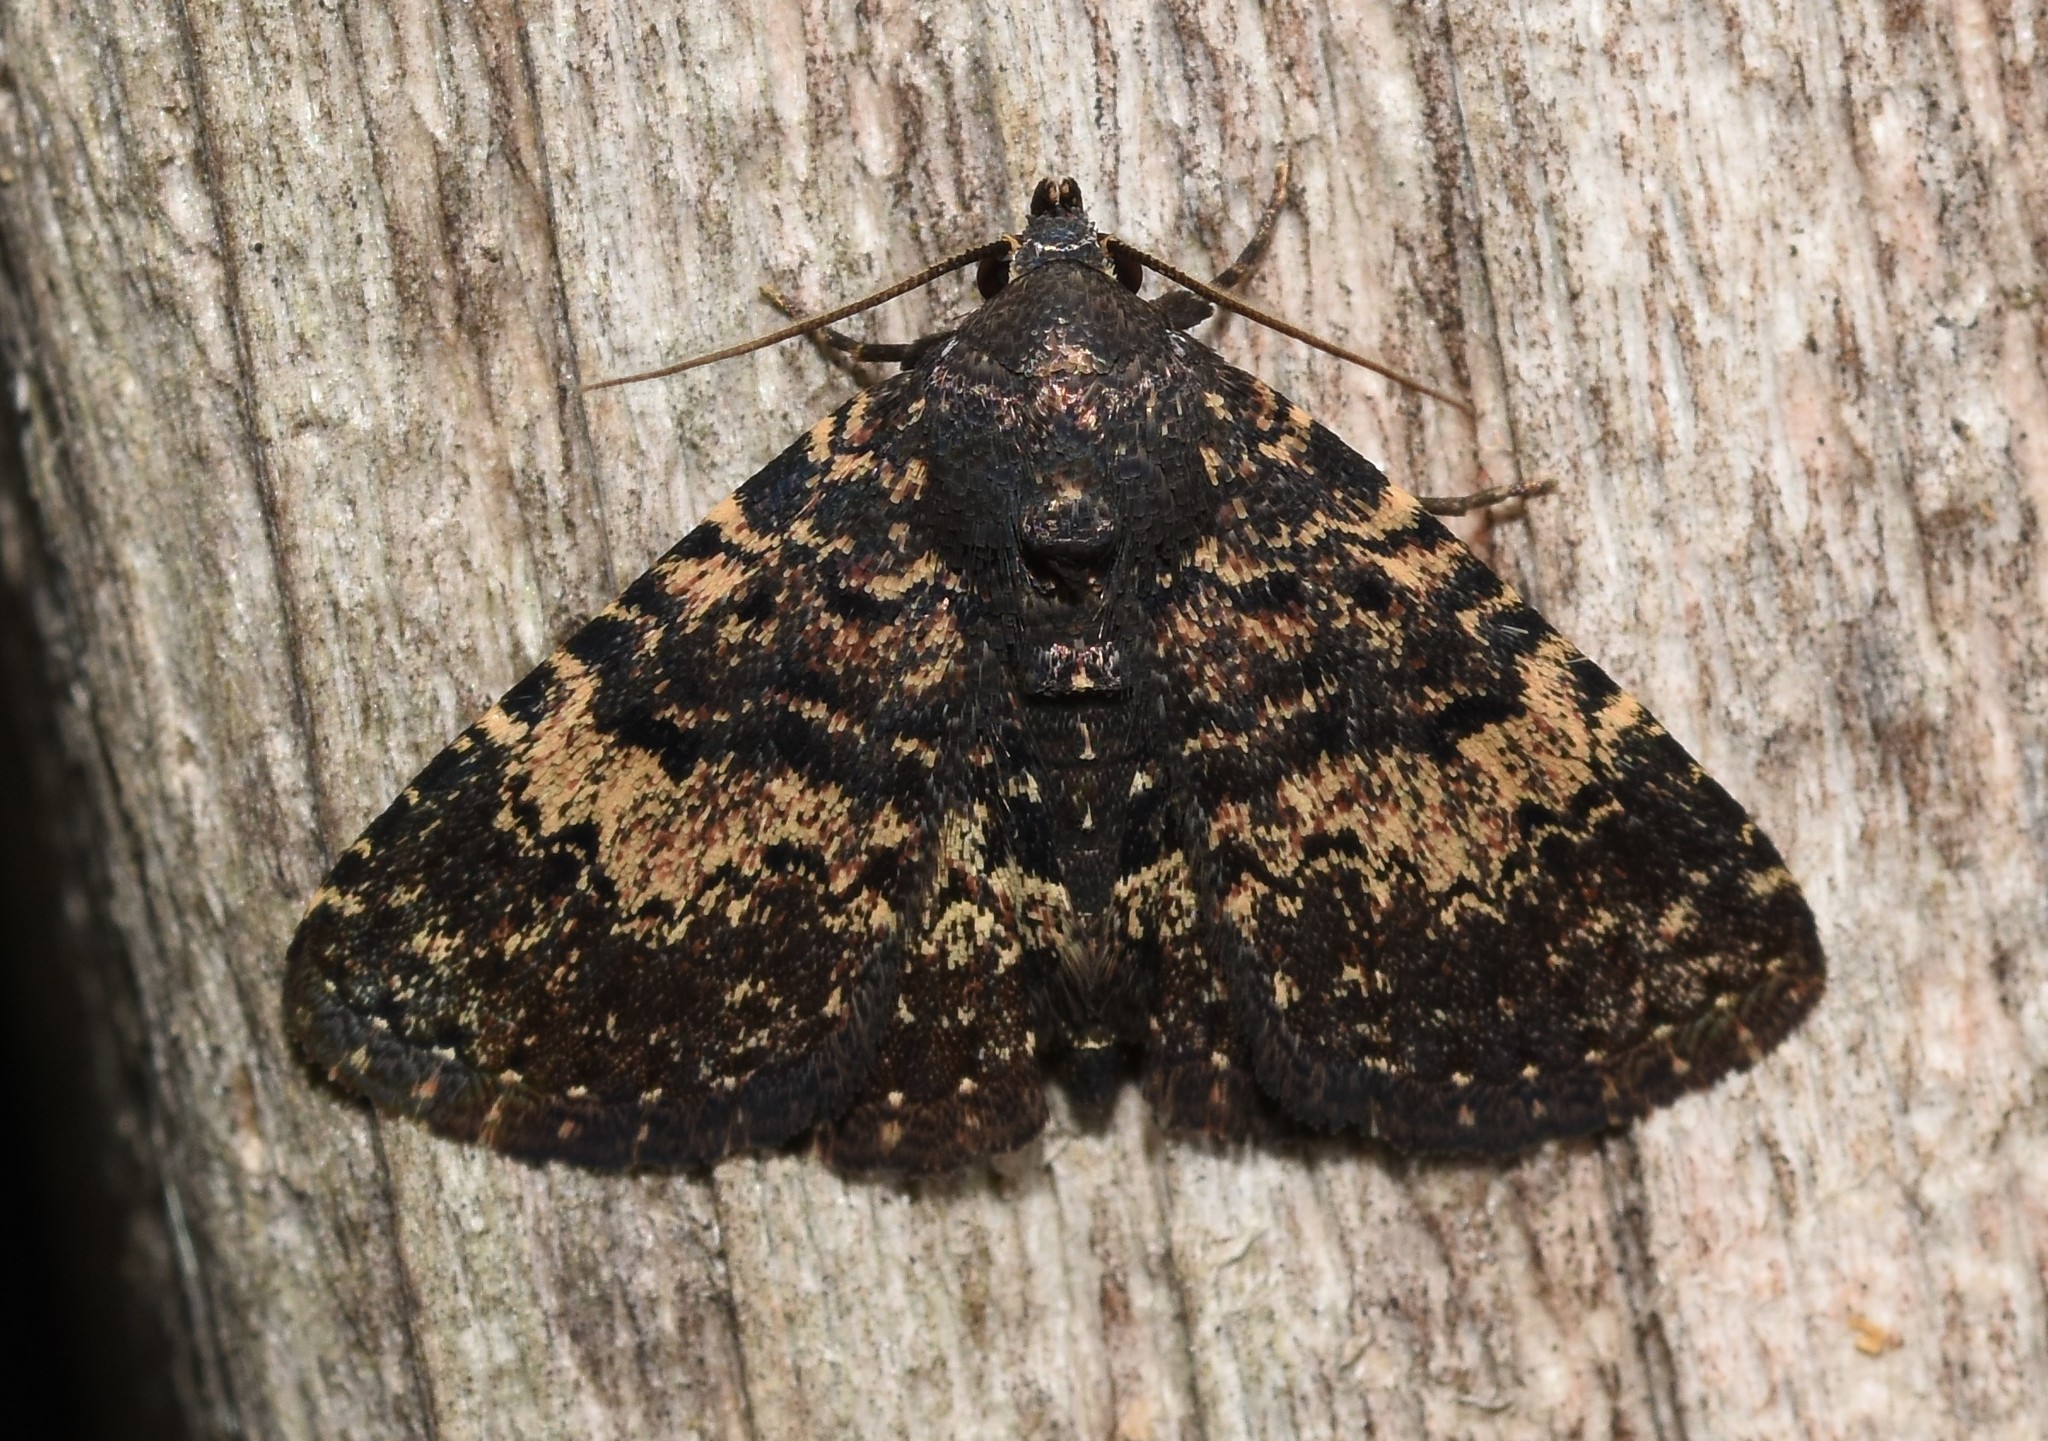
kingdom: Animalia
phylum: Arthropoda
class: Insecta
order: Lepidoptera
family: Erebidae
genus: Metalectra
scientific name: Metalectra diabolica
